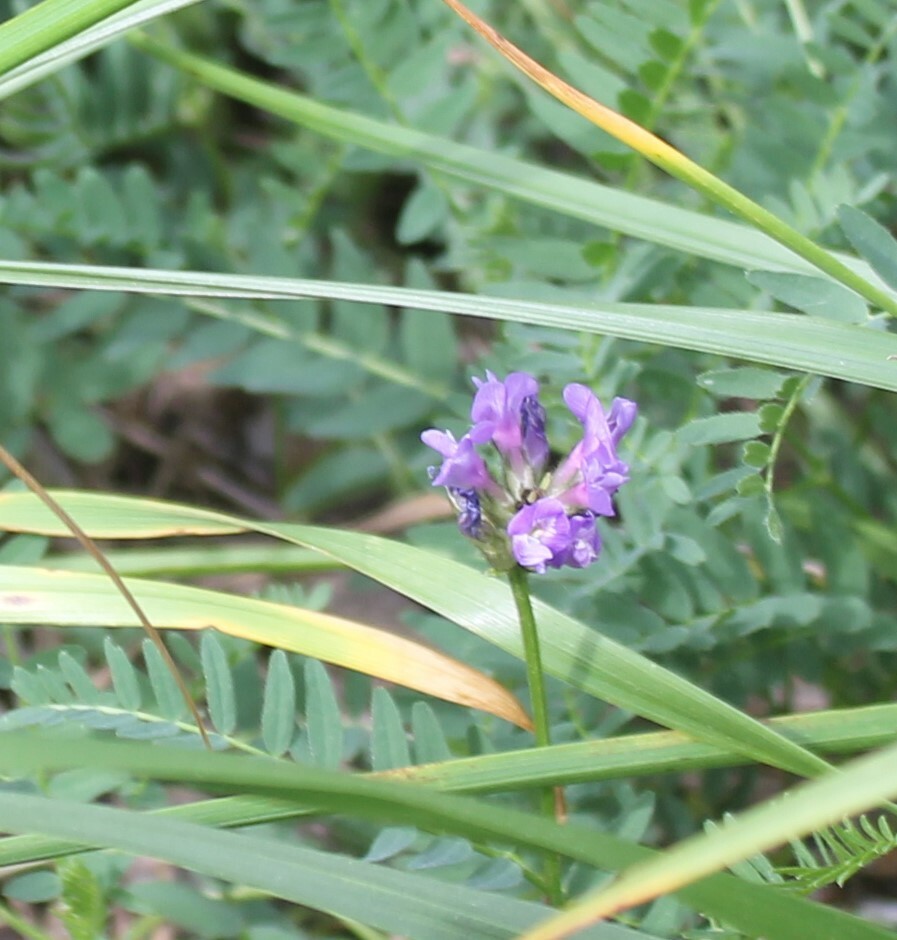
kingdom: Plantae
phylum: Tracheophyta
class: Magnoliopsida
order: Fabales
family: Fabaceae
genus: Astragalus
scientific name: Astragalus danicus
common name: Purple milk-vetch
